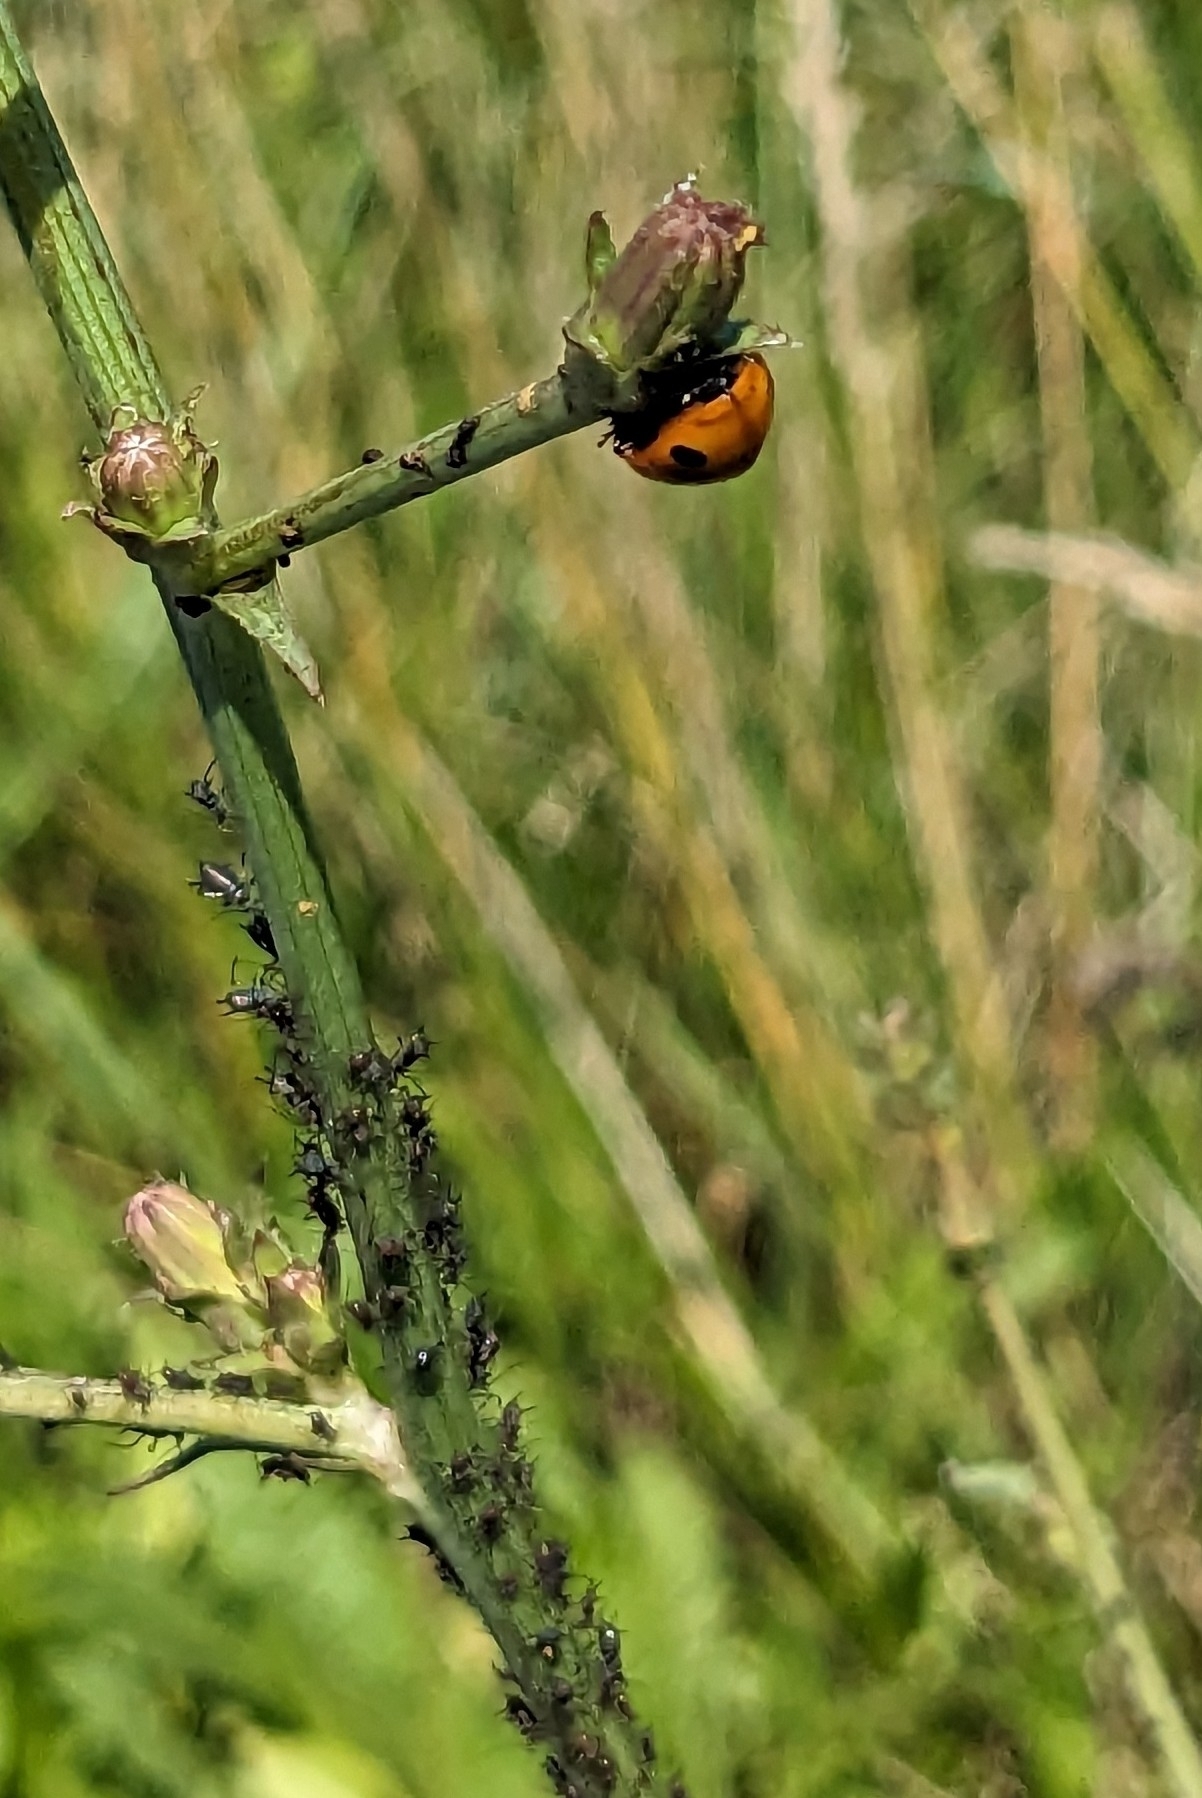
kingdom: Plantae
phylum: Tracheophyta
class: Magnoliopsida
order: Asterales
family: Asteraceae
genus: Cichorium
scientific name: Cichorium intybus
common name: Chicory
